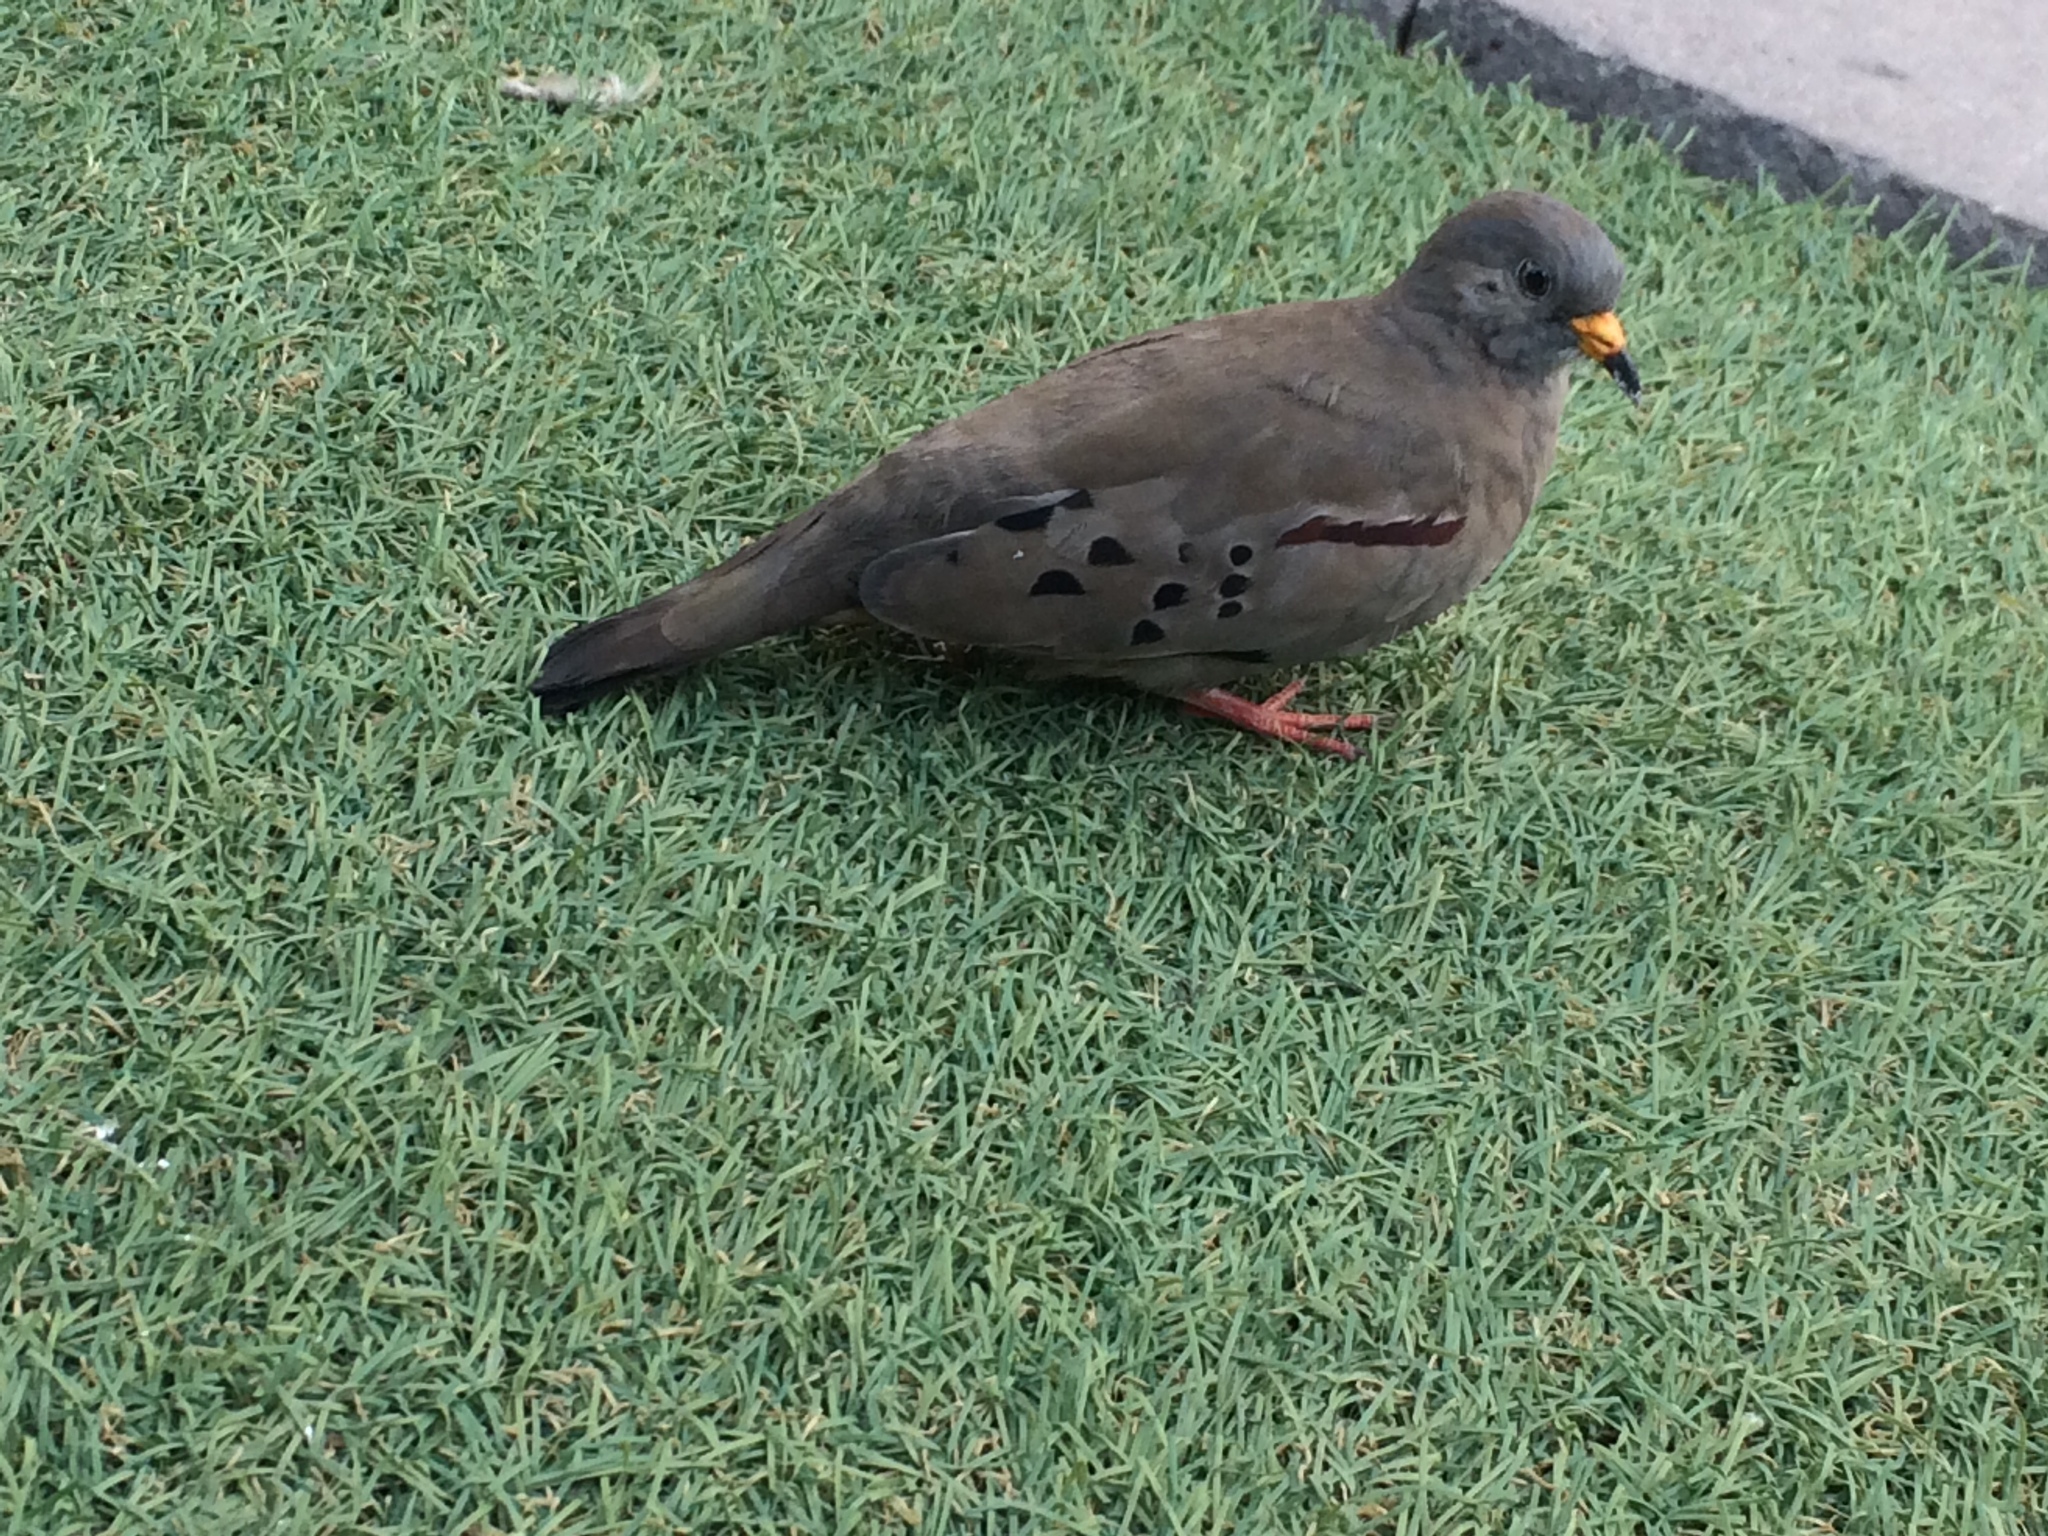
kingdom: Animalia
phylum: Chordata
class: Aves
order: Columbiformes
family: Columbidae
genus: Columbina
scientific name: Columbina cruziana
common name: Croaking ground dove
